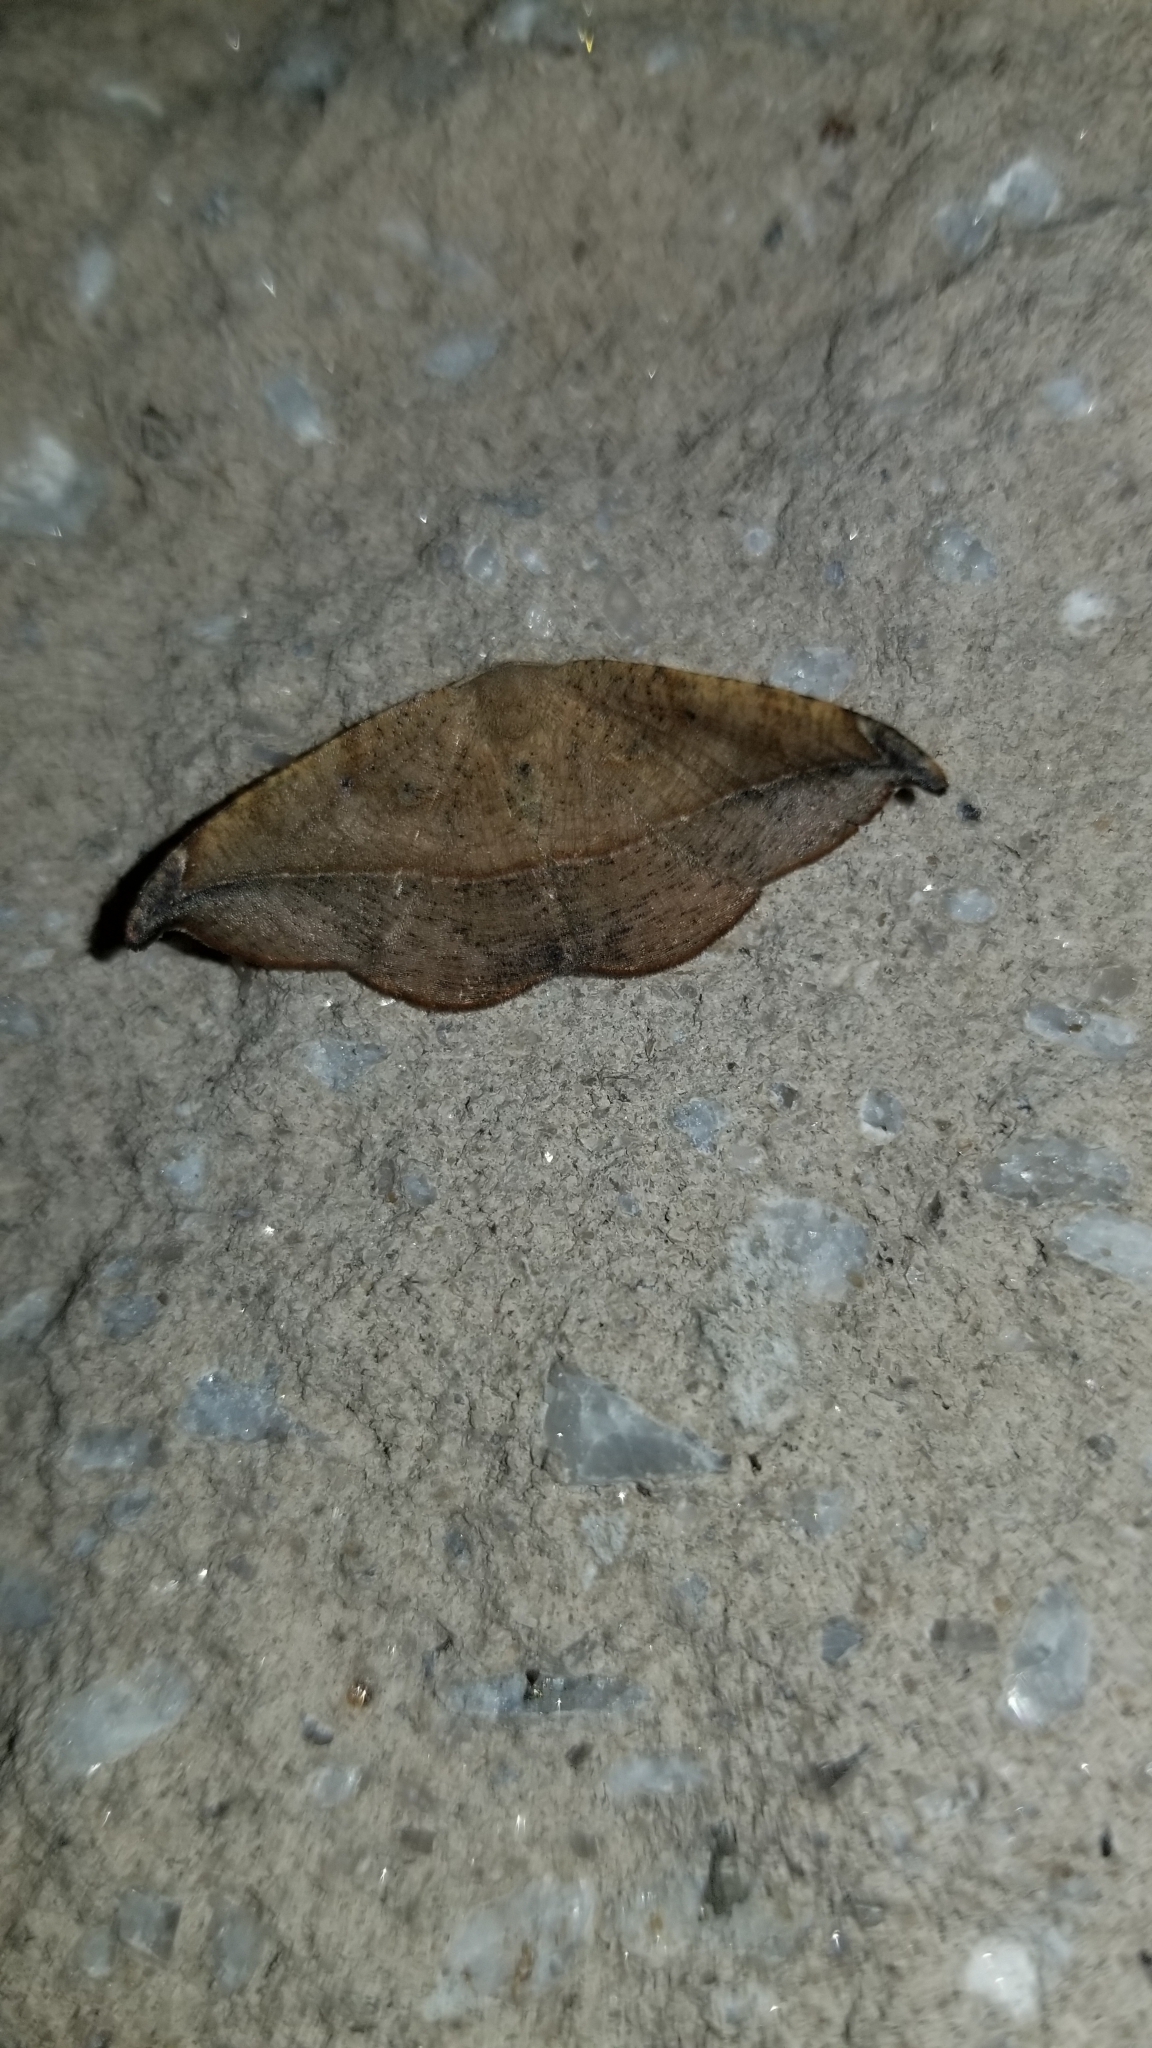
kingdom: Animalia
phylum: Arthropoda
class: Insecta
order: Lepidoptera
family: Geometridae
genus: Patalene
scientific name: Patalene olyzonaria
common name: Juniper geometer moth
